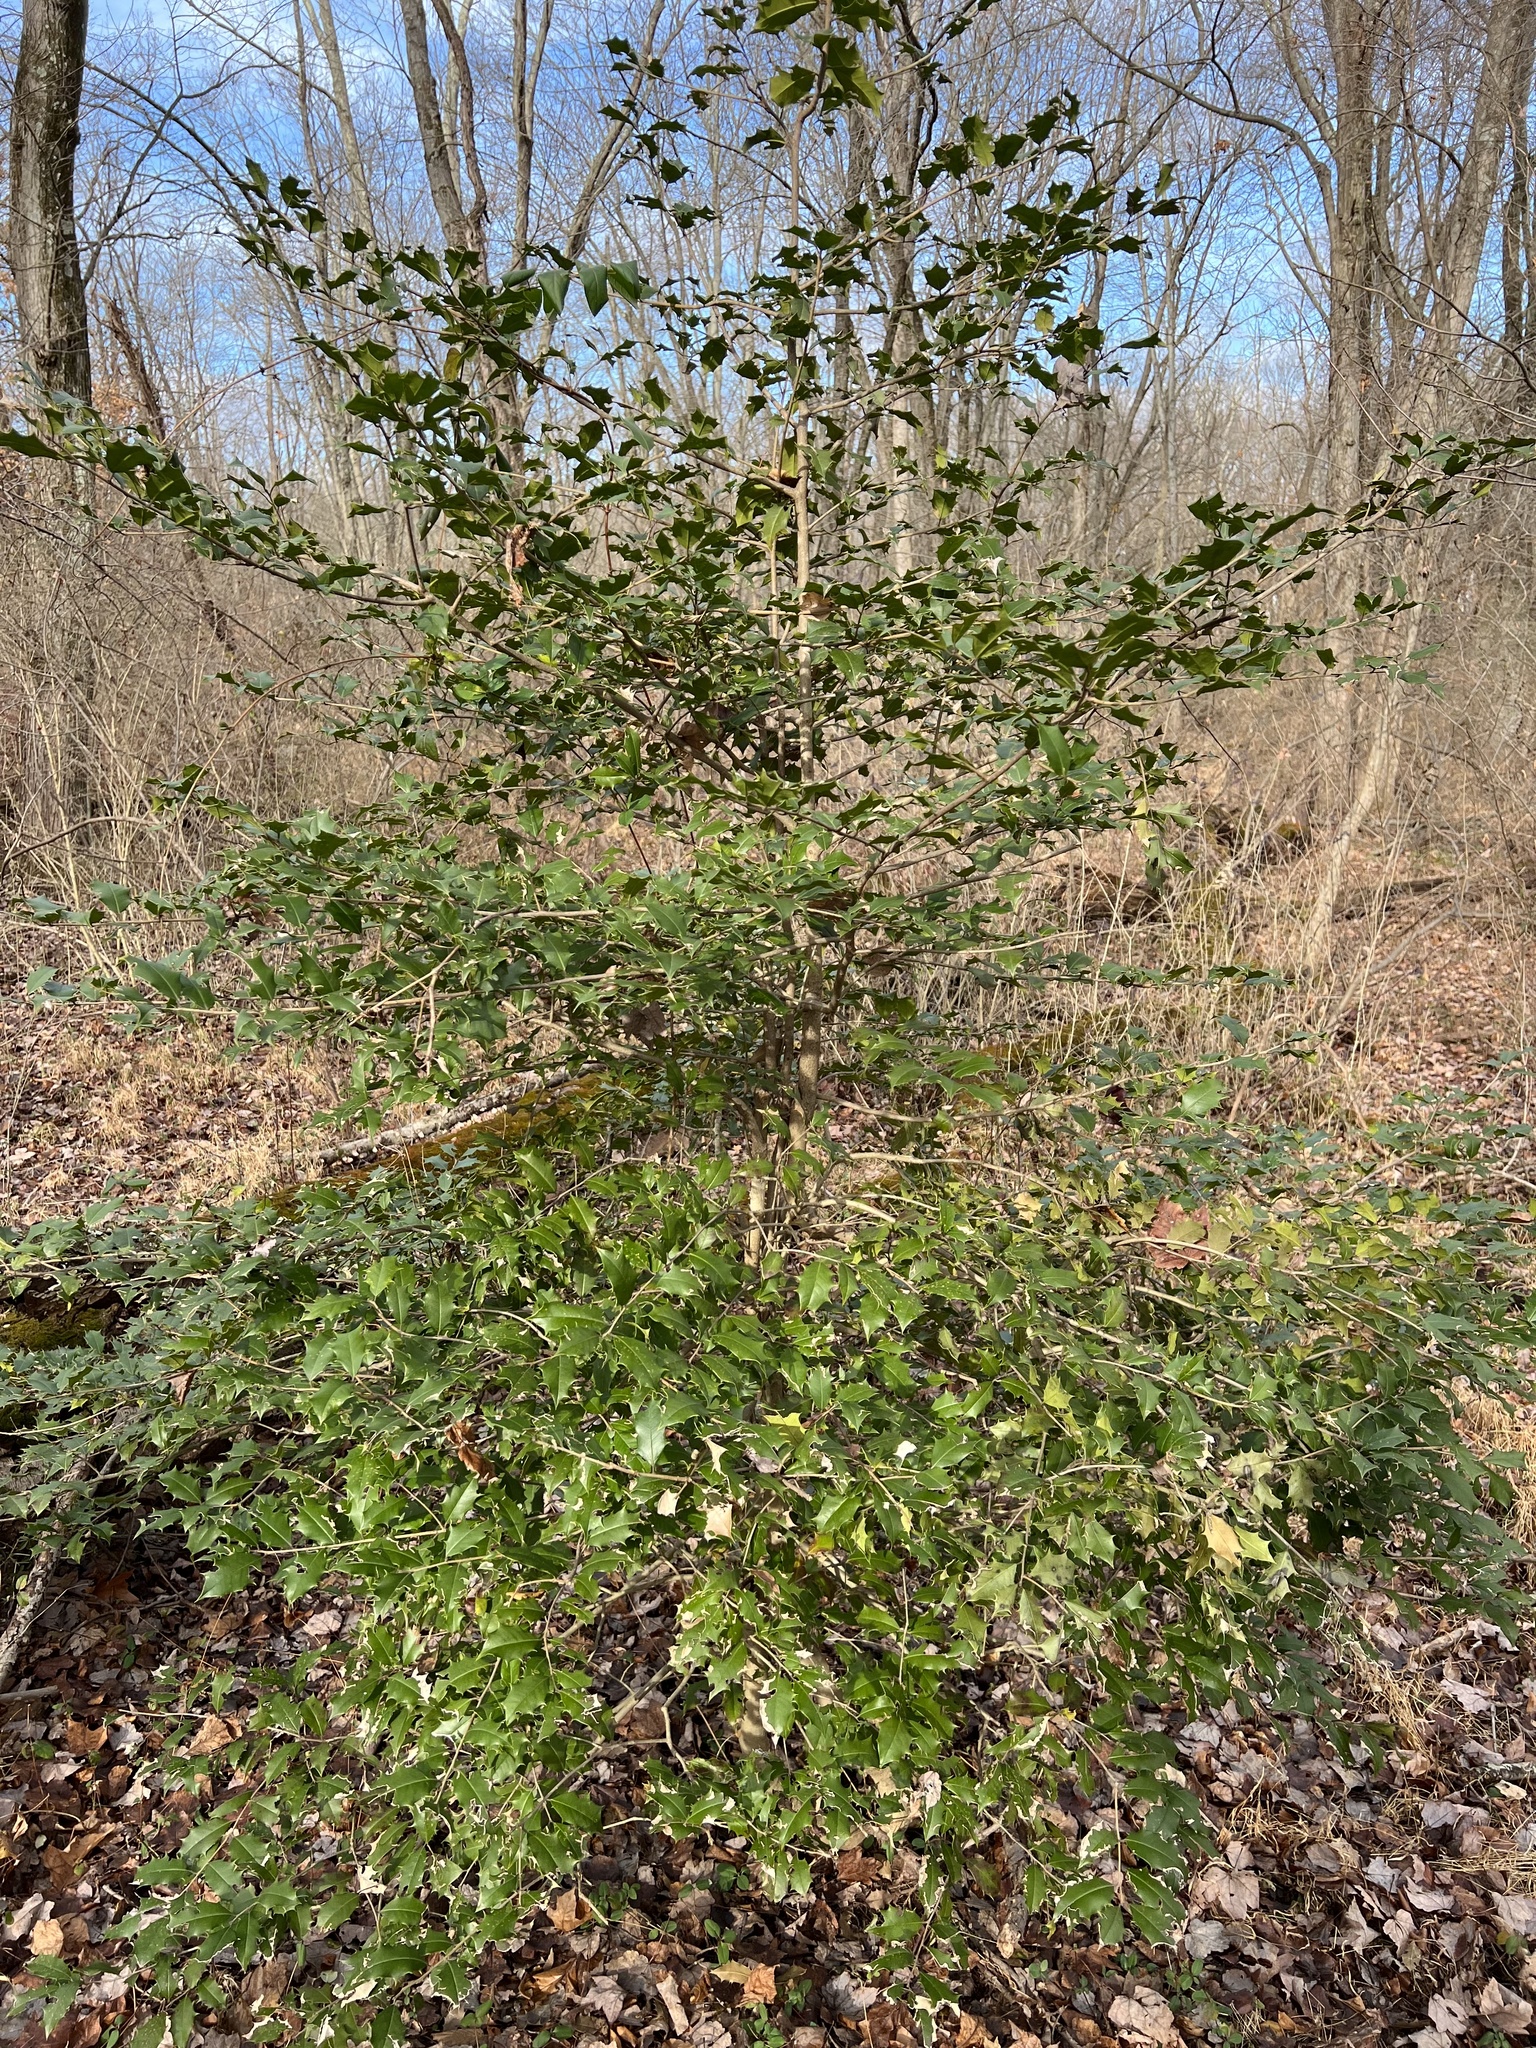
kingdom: Plantae
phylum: Tracheophyta
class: Magnoliopsida
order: Aquifoliales
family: Aquifoliaceae
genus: Ilex
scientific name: Ilex opaca
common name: American holly
